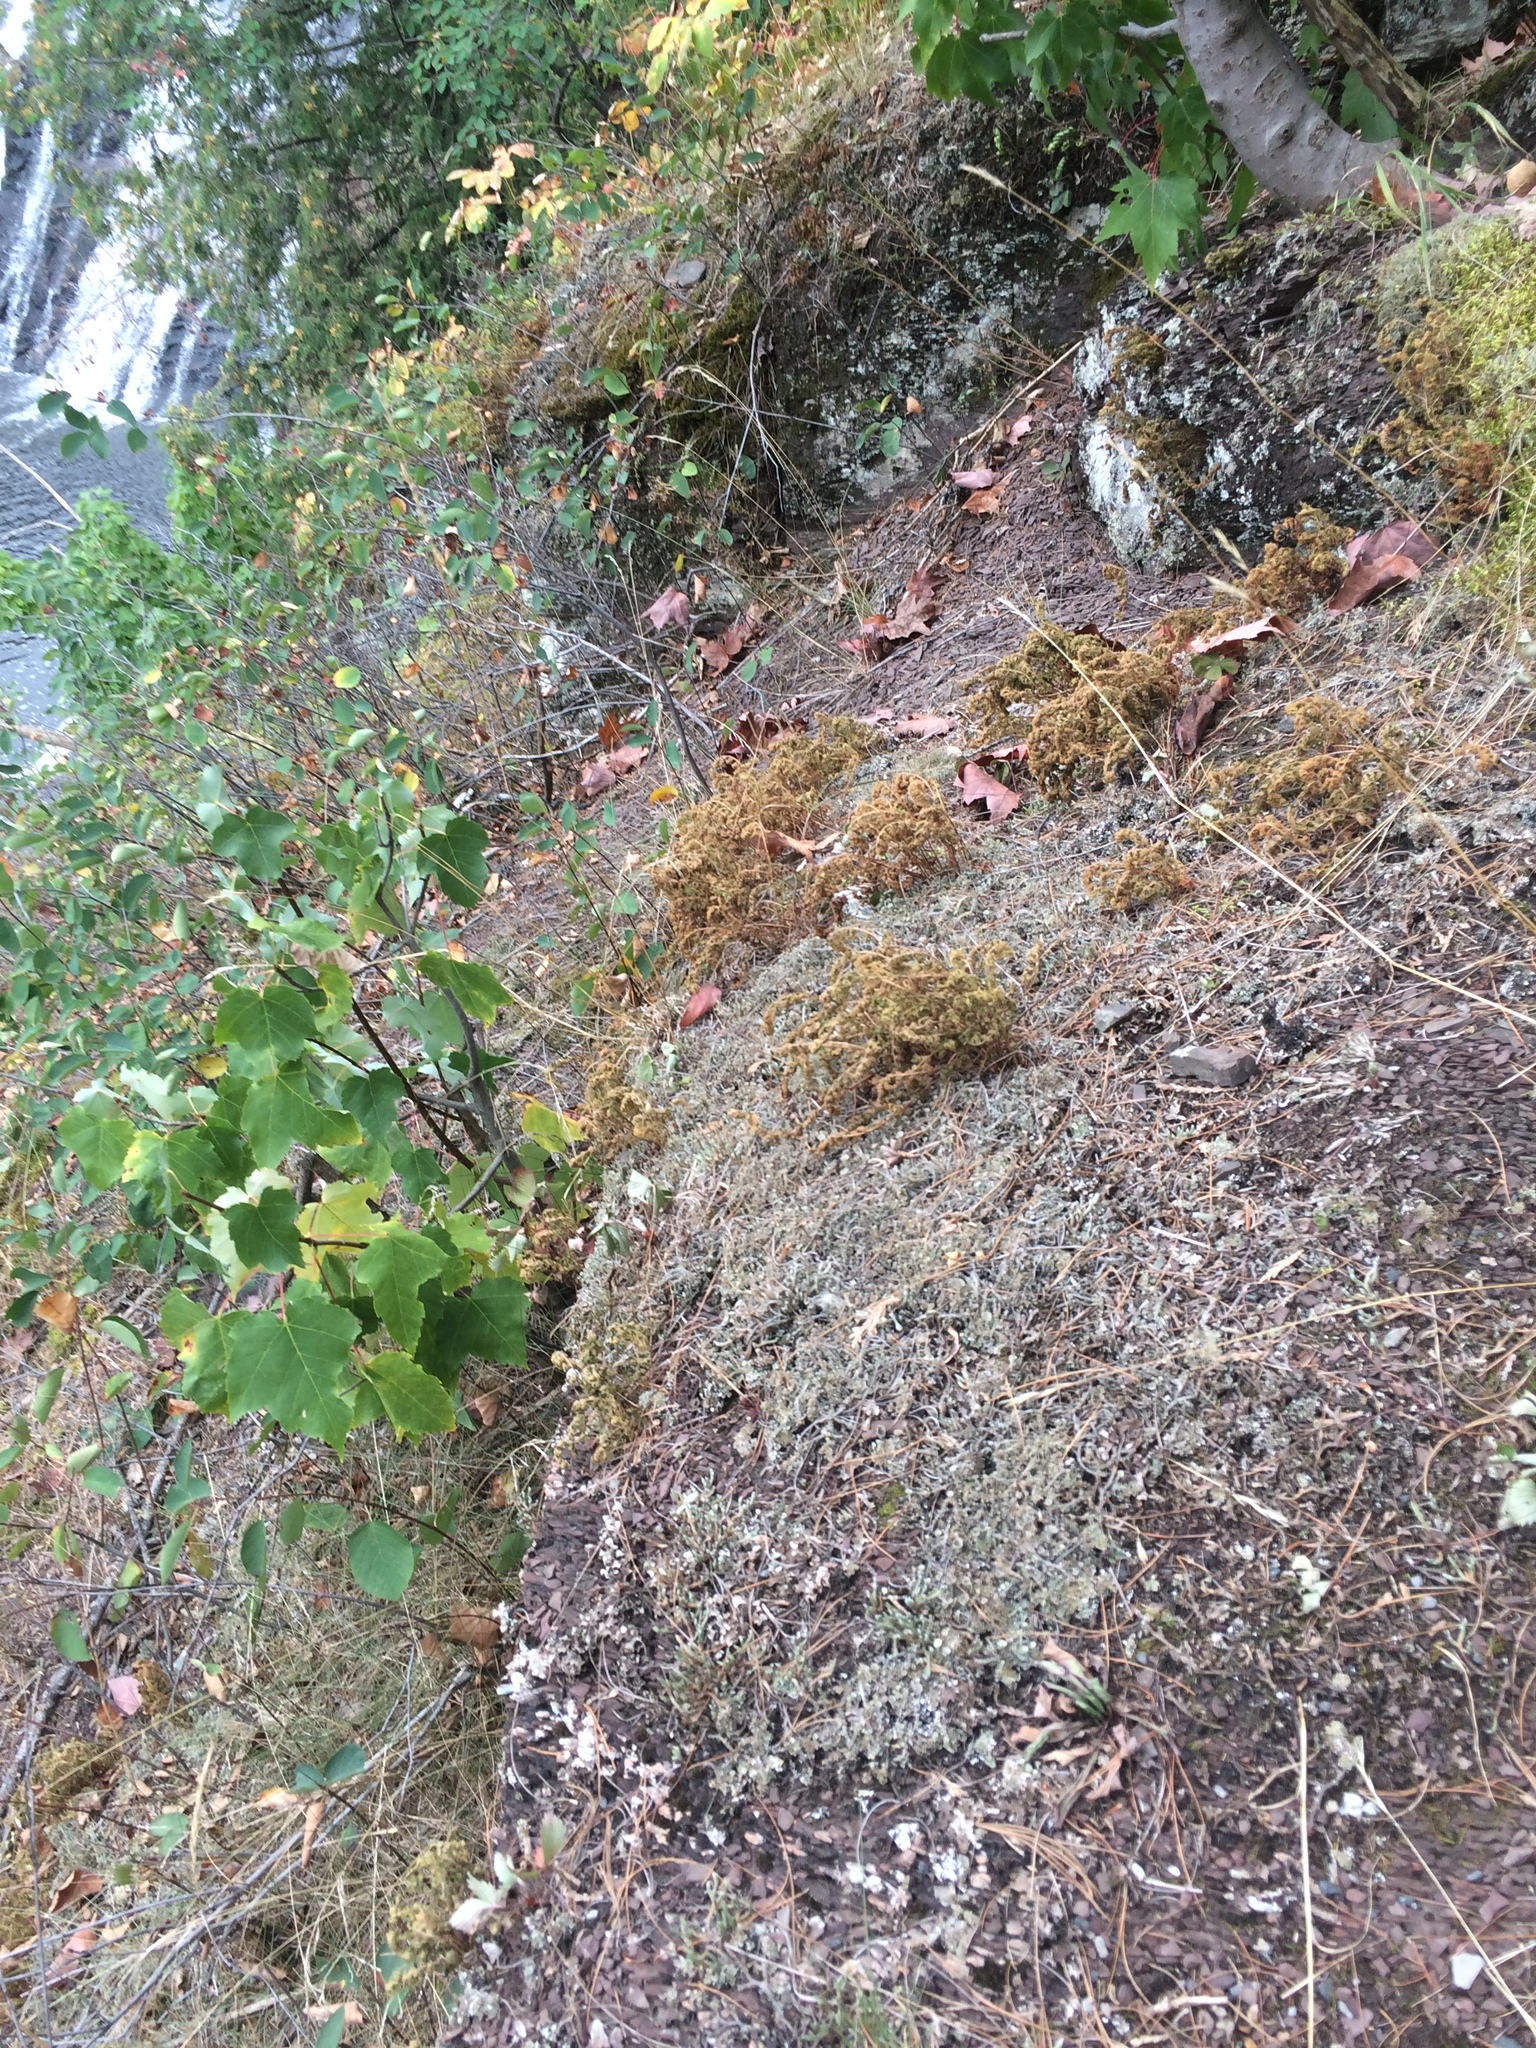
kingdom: Plantae
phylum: Tracheophyta
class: Polypodiopsida
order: Polypodiales
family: Woodsiaceae
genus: Woodsia
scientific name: Woodsia ilvensis
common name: Fragrant woodsia
